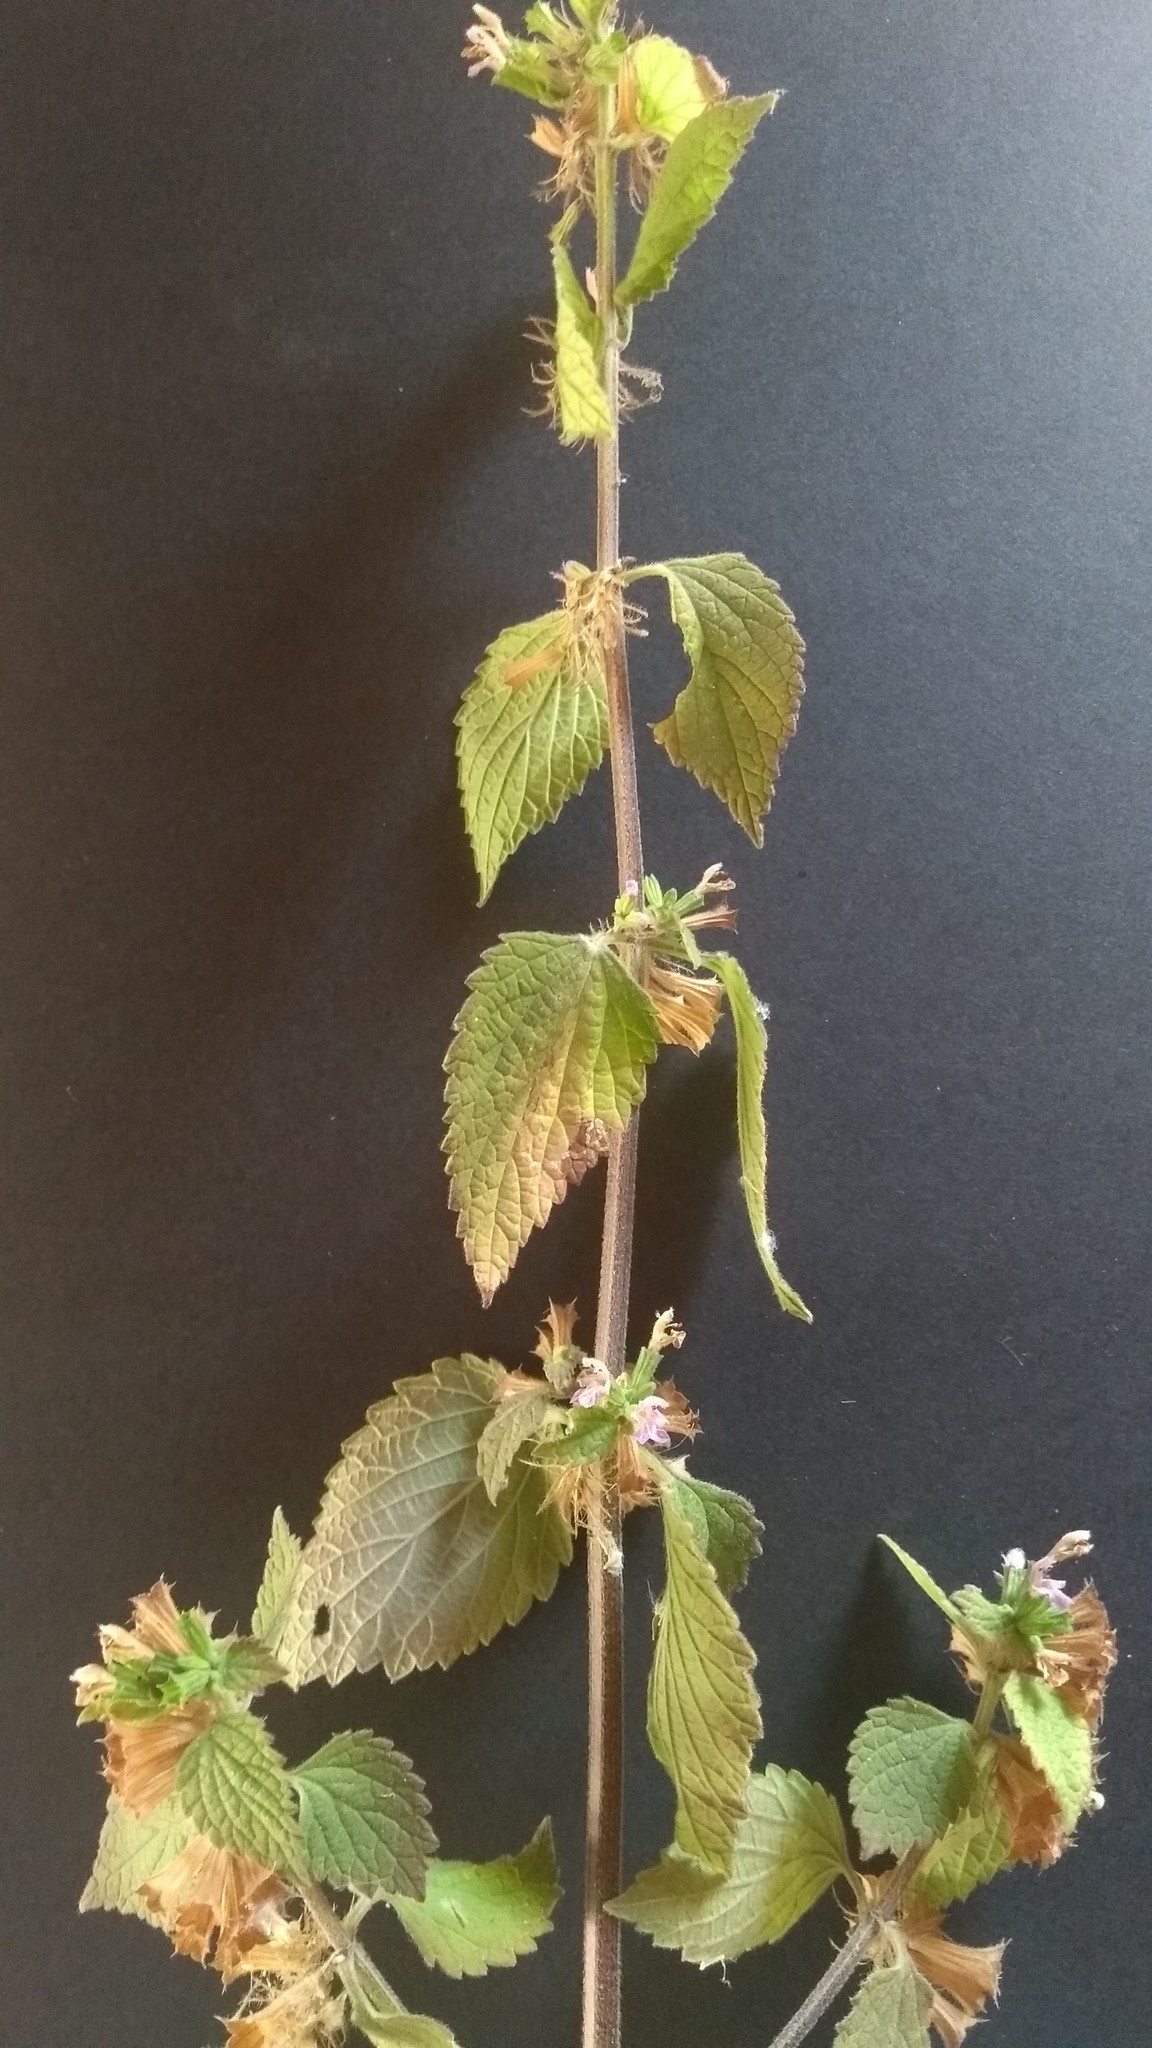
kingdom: Plantae
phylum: Tracheophyta
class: Magnoliopsida
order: Lamiales
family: Lamiaceae
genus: Ballota
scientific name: Ballota nigra
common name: Black horehound
